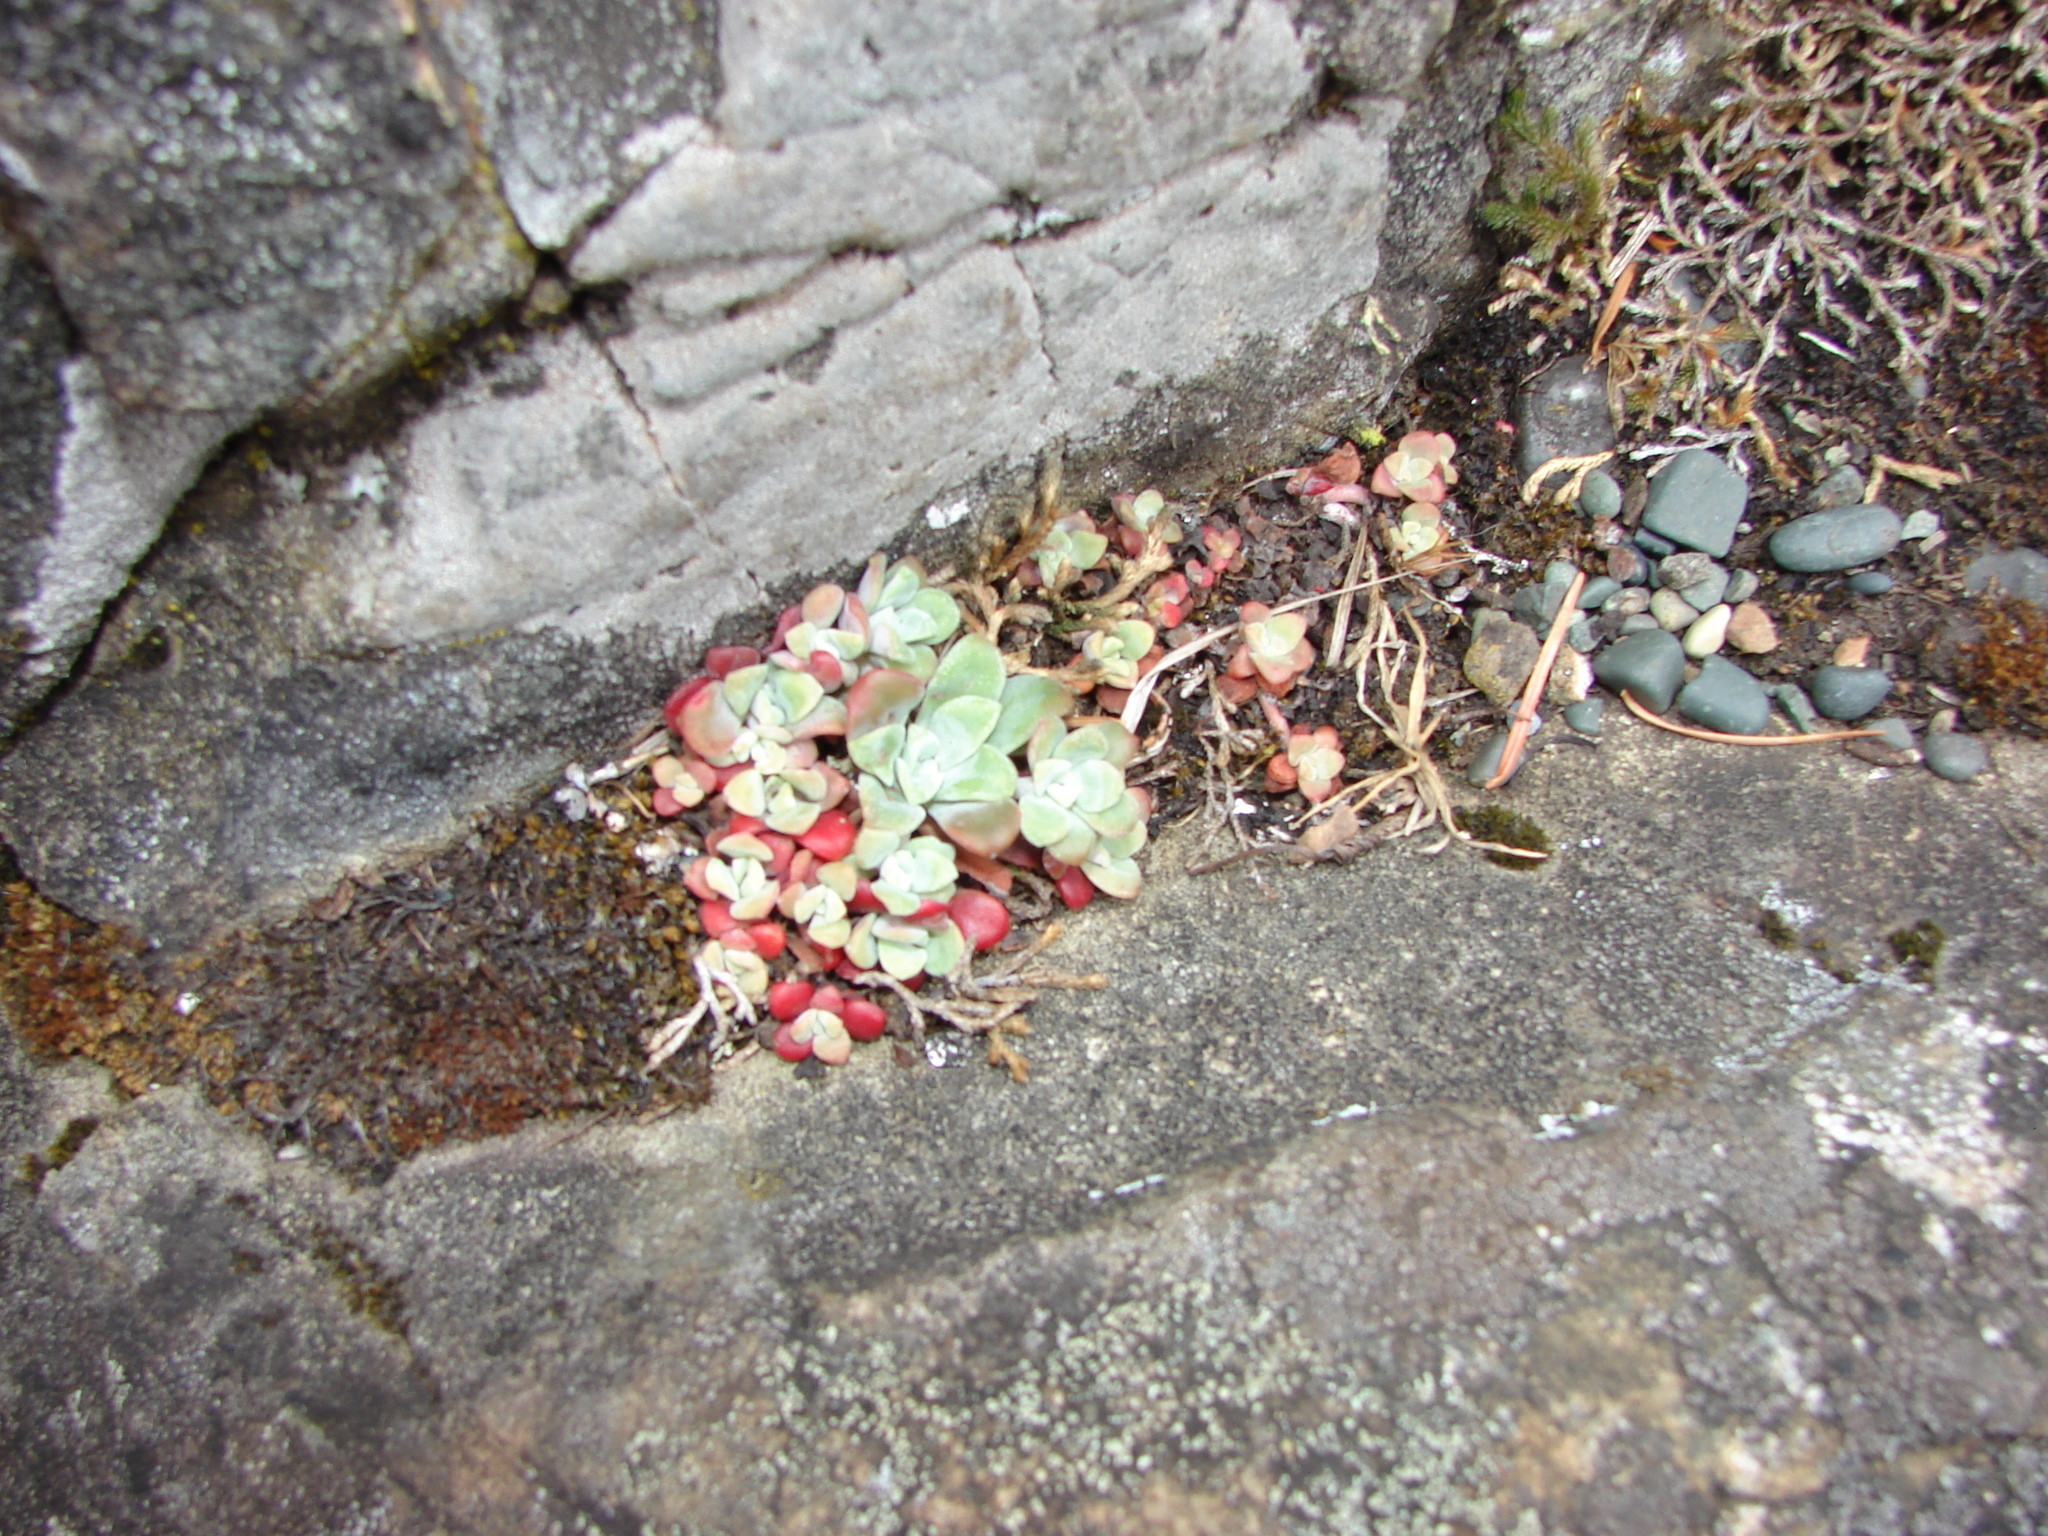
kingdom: Plantae
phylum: Tracheophyta
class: Magnoliopsida
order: Saxifragales
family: Crassulaceae
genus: Sedum
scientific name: Sedum spathulifolium
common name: Colorado stonecrop
